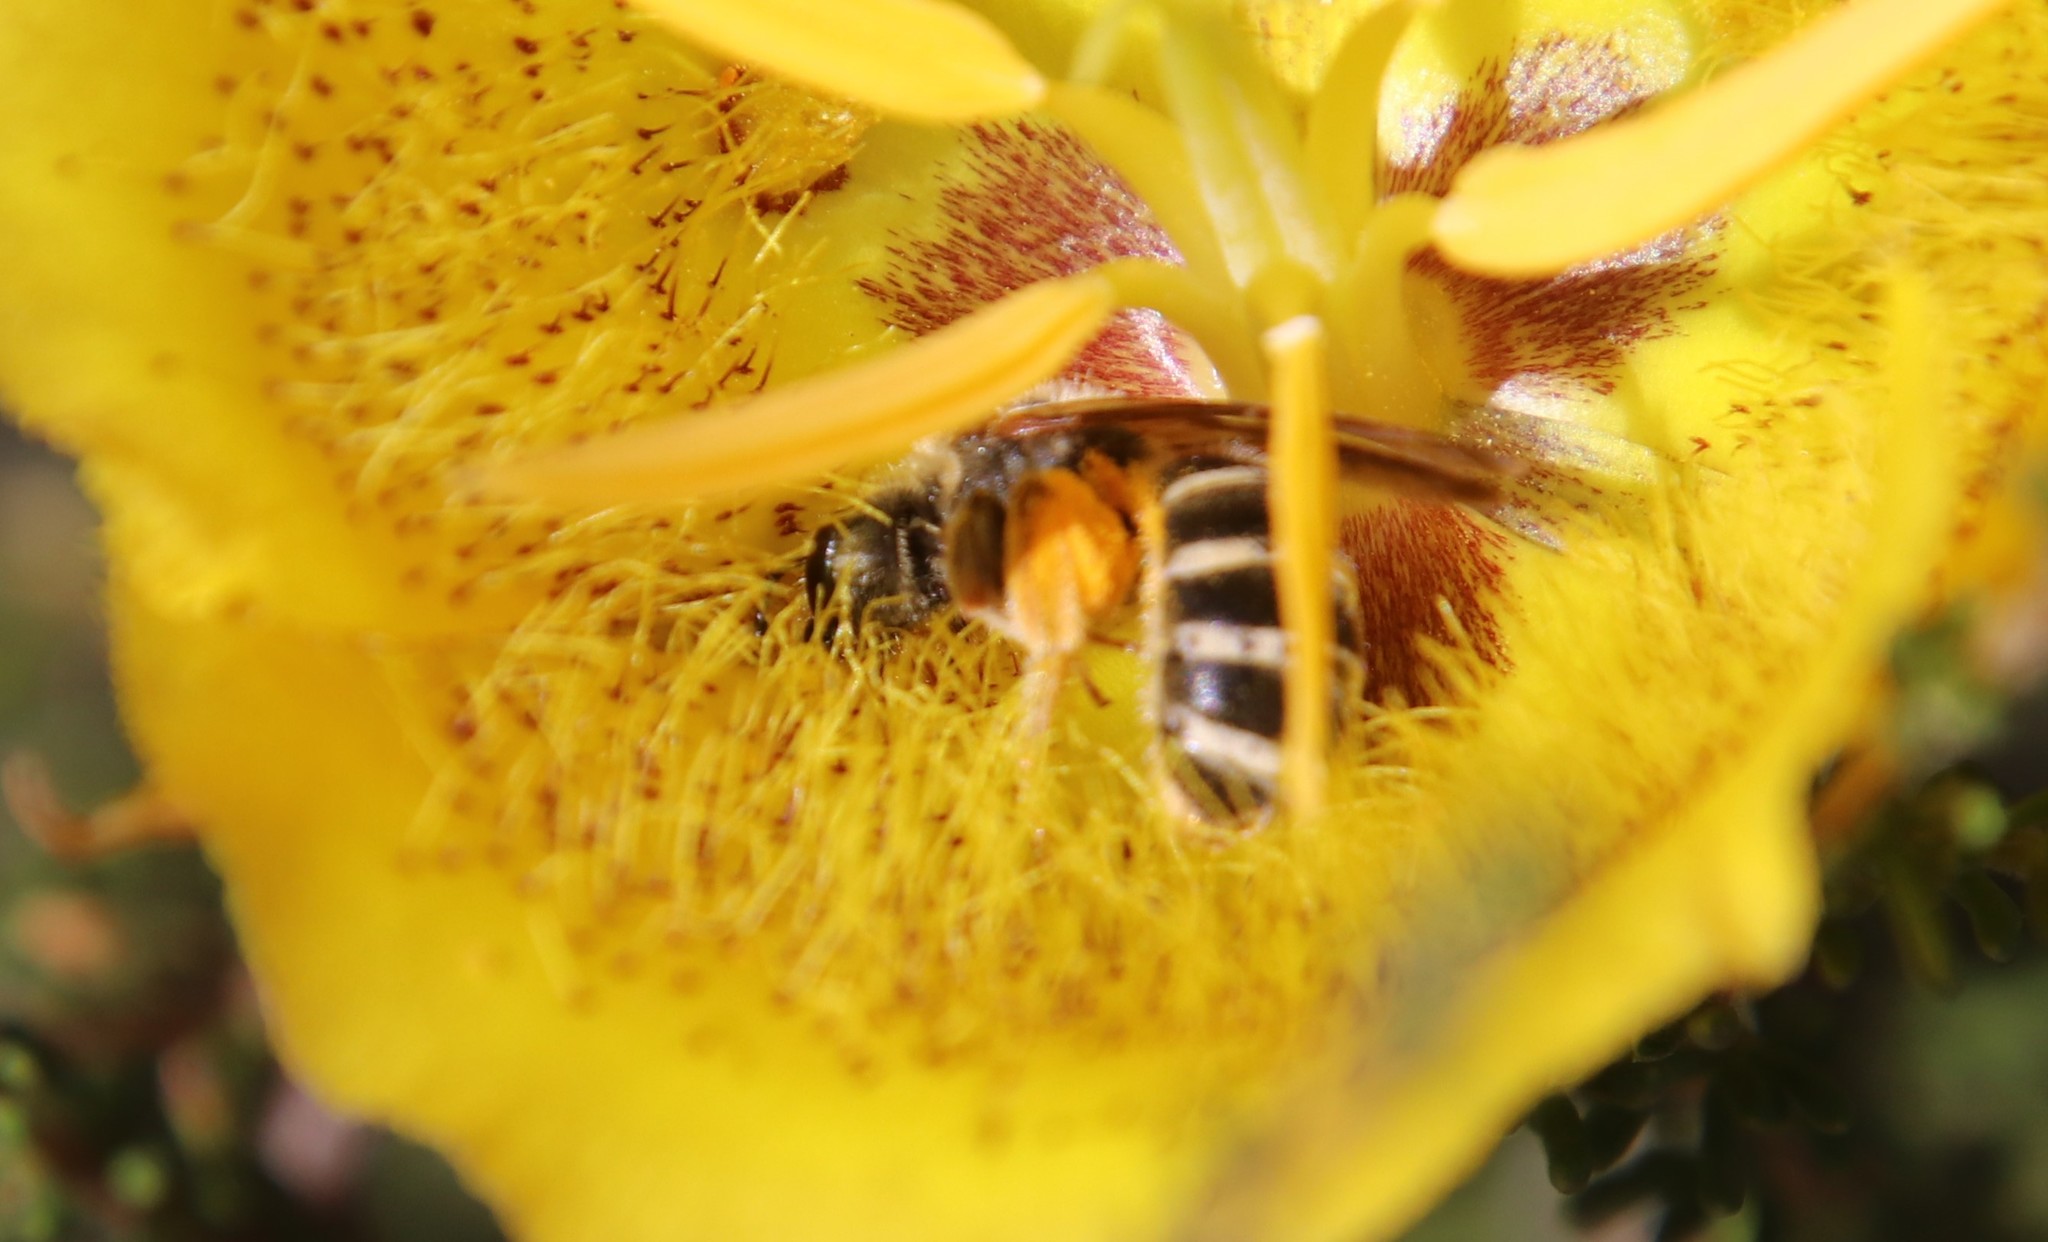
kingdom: Animalia
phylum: Arthropoda
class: Insecta
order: Hymenoptera
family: Halictidae
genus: Halictus
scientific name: Halictus farinosus
